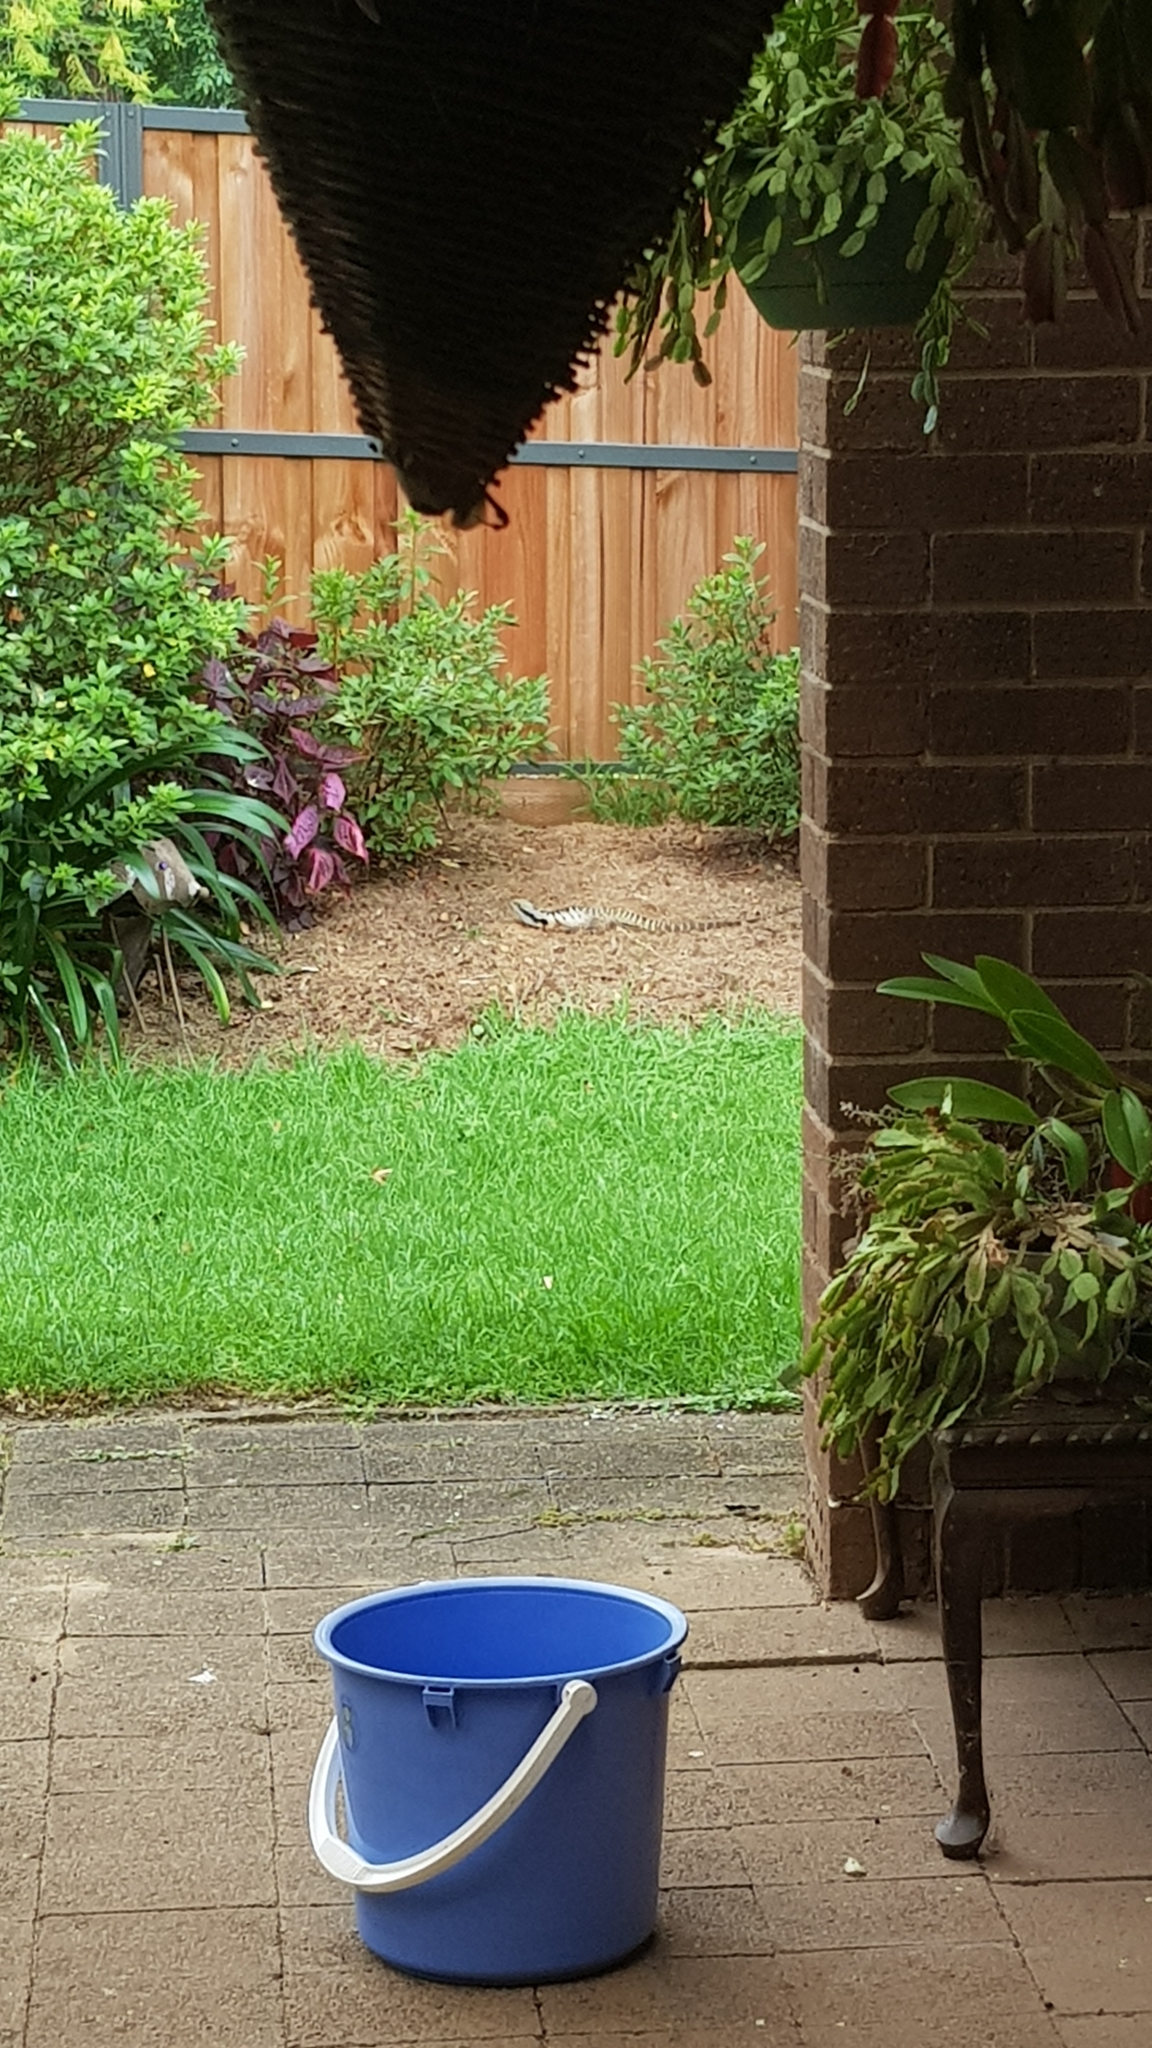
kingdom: Animalia
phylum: Chordata
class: Squamata
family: Agamidae
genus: Intellagama
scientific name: Intellagama lesueurii
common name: Eastern water dragon
